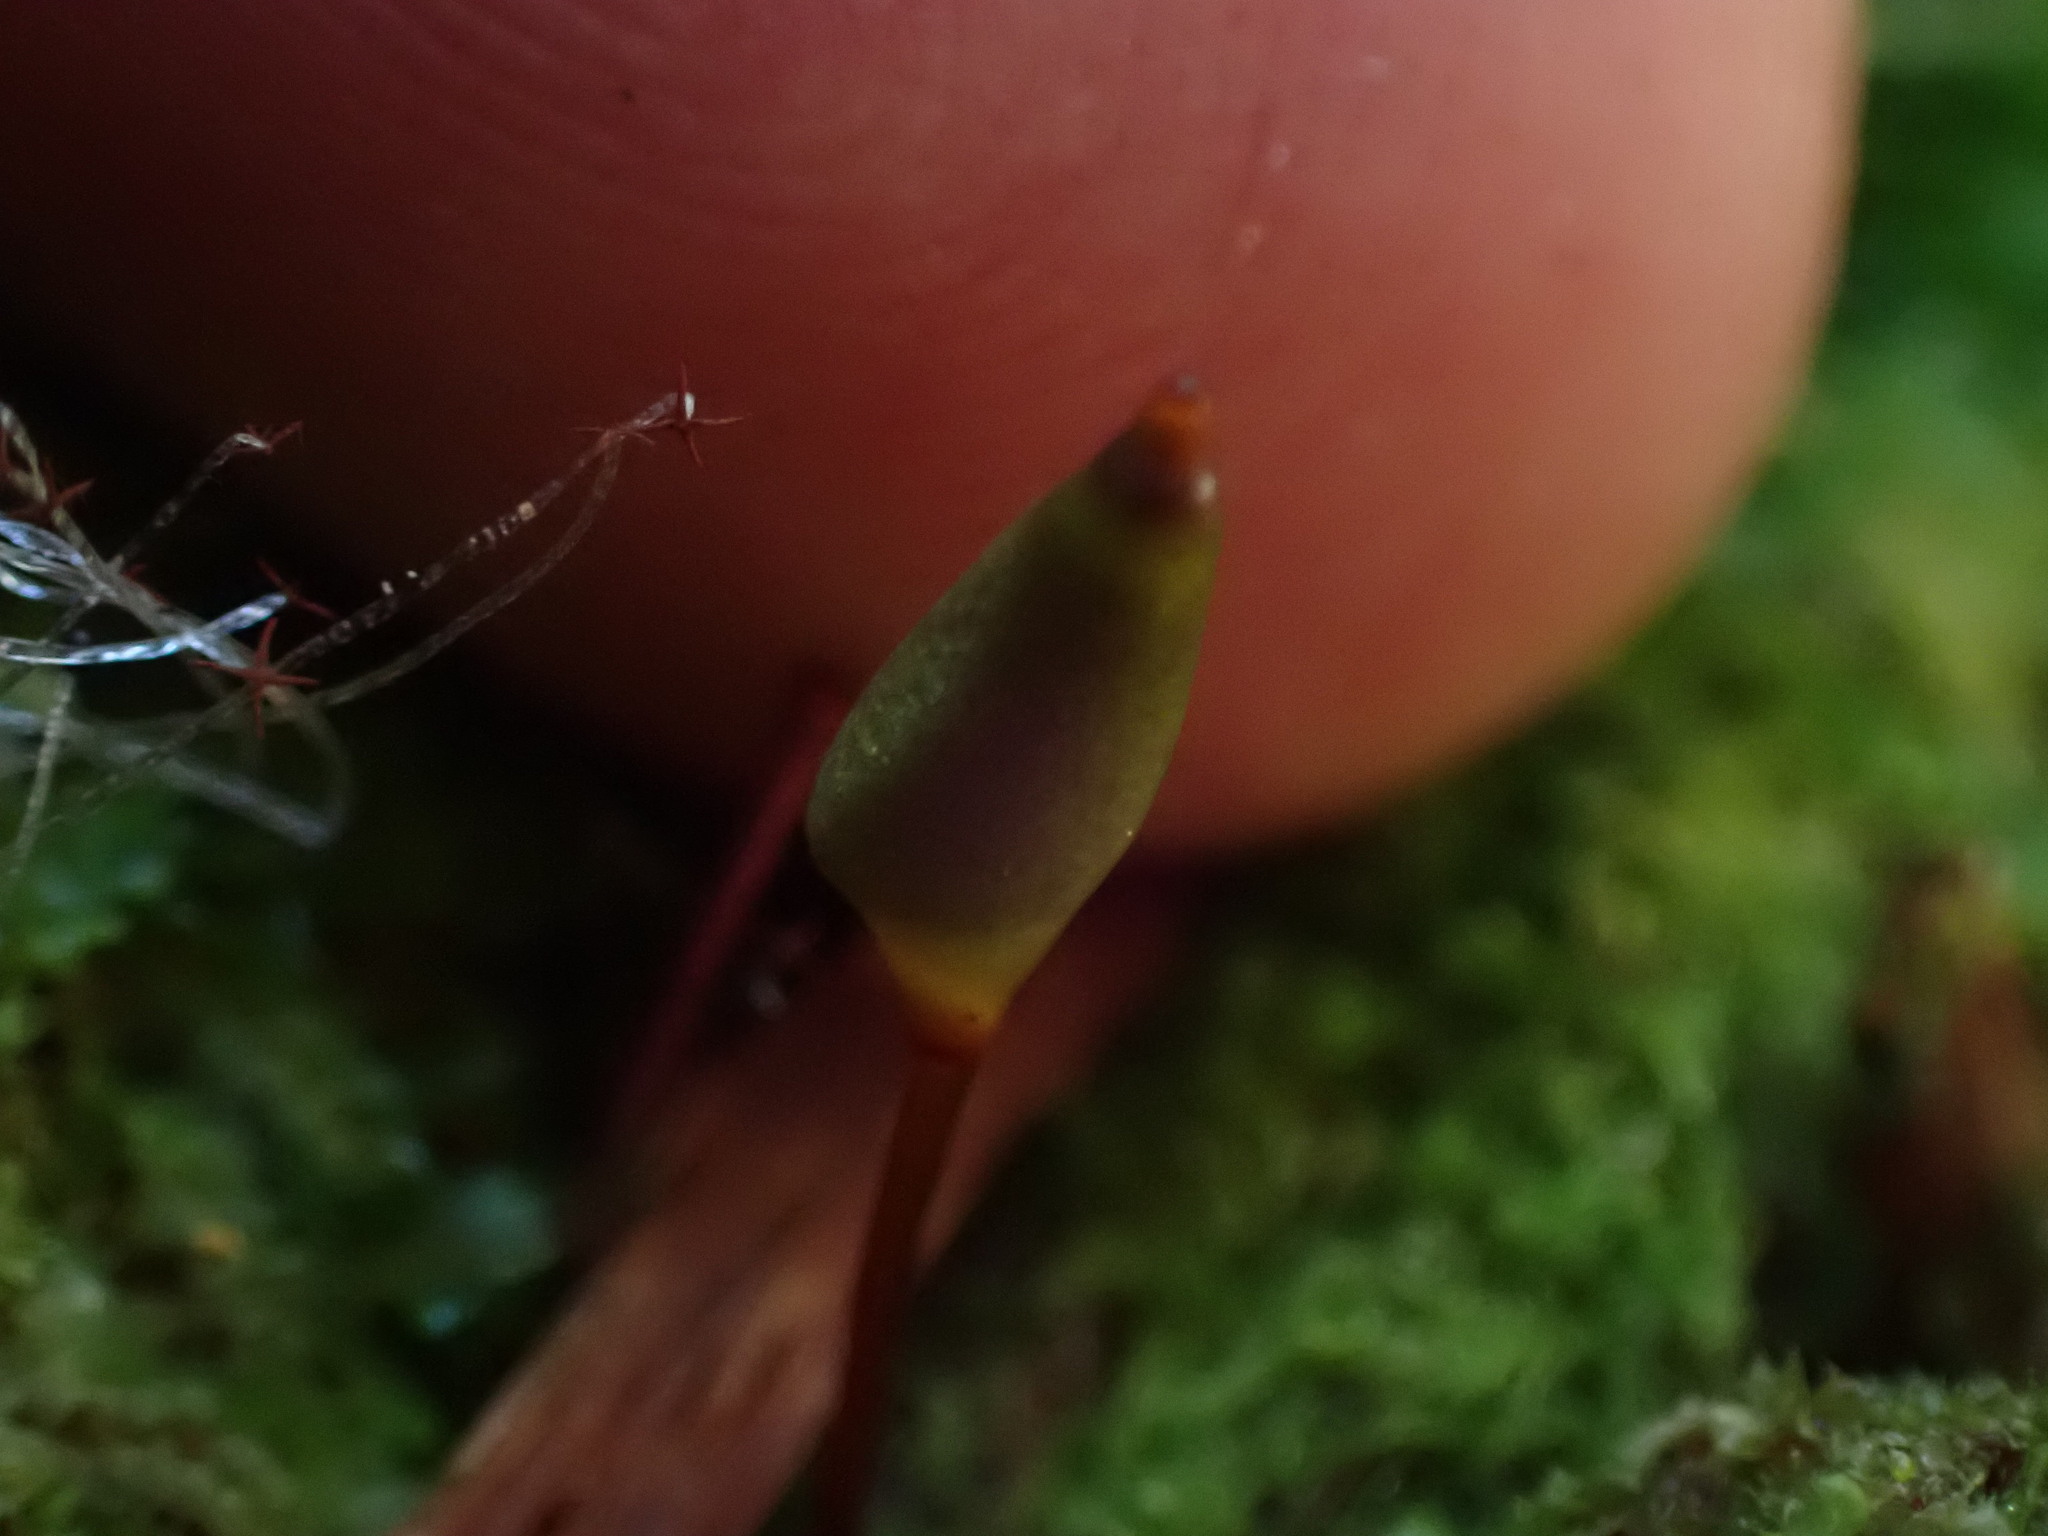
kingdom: Plantae
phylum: Bryophyta
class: Bryopsida
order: Buxbaumiales
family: Buxbaumiaceae
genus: Buxbaumia
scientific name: Buxbaumia aphylla
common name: Brown shield-moss
